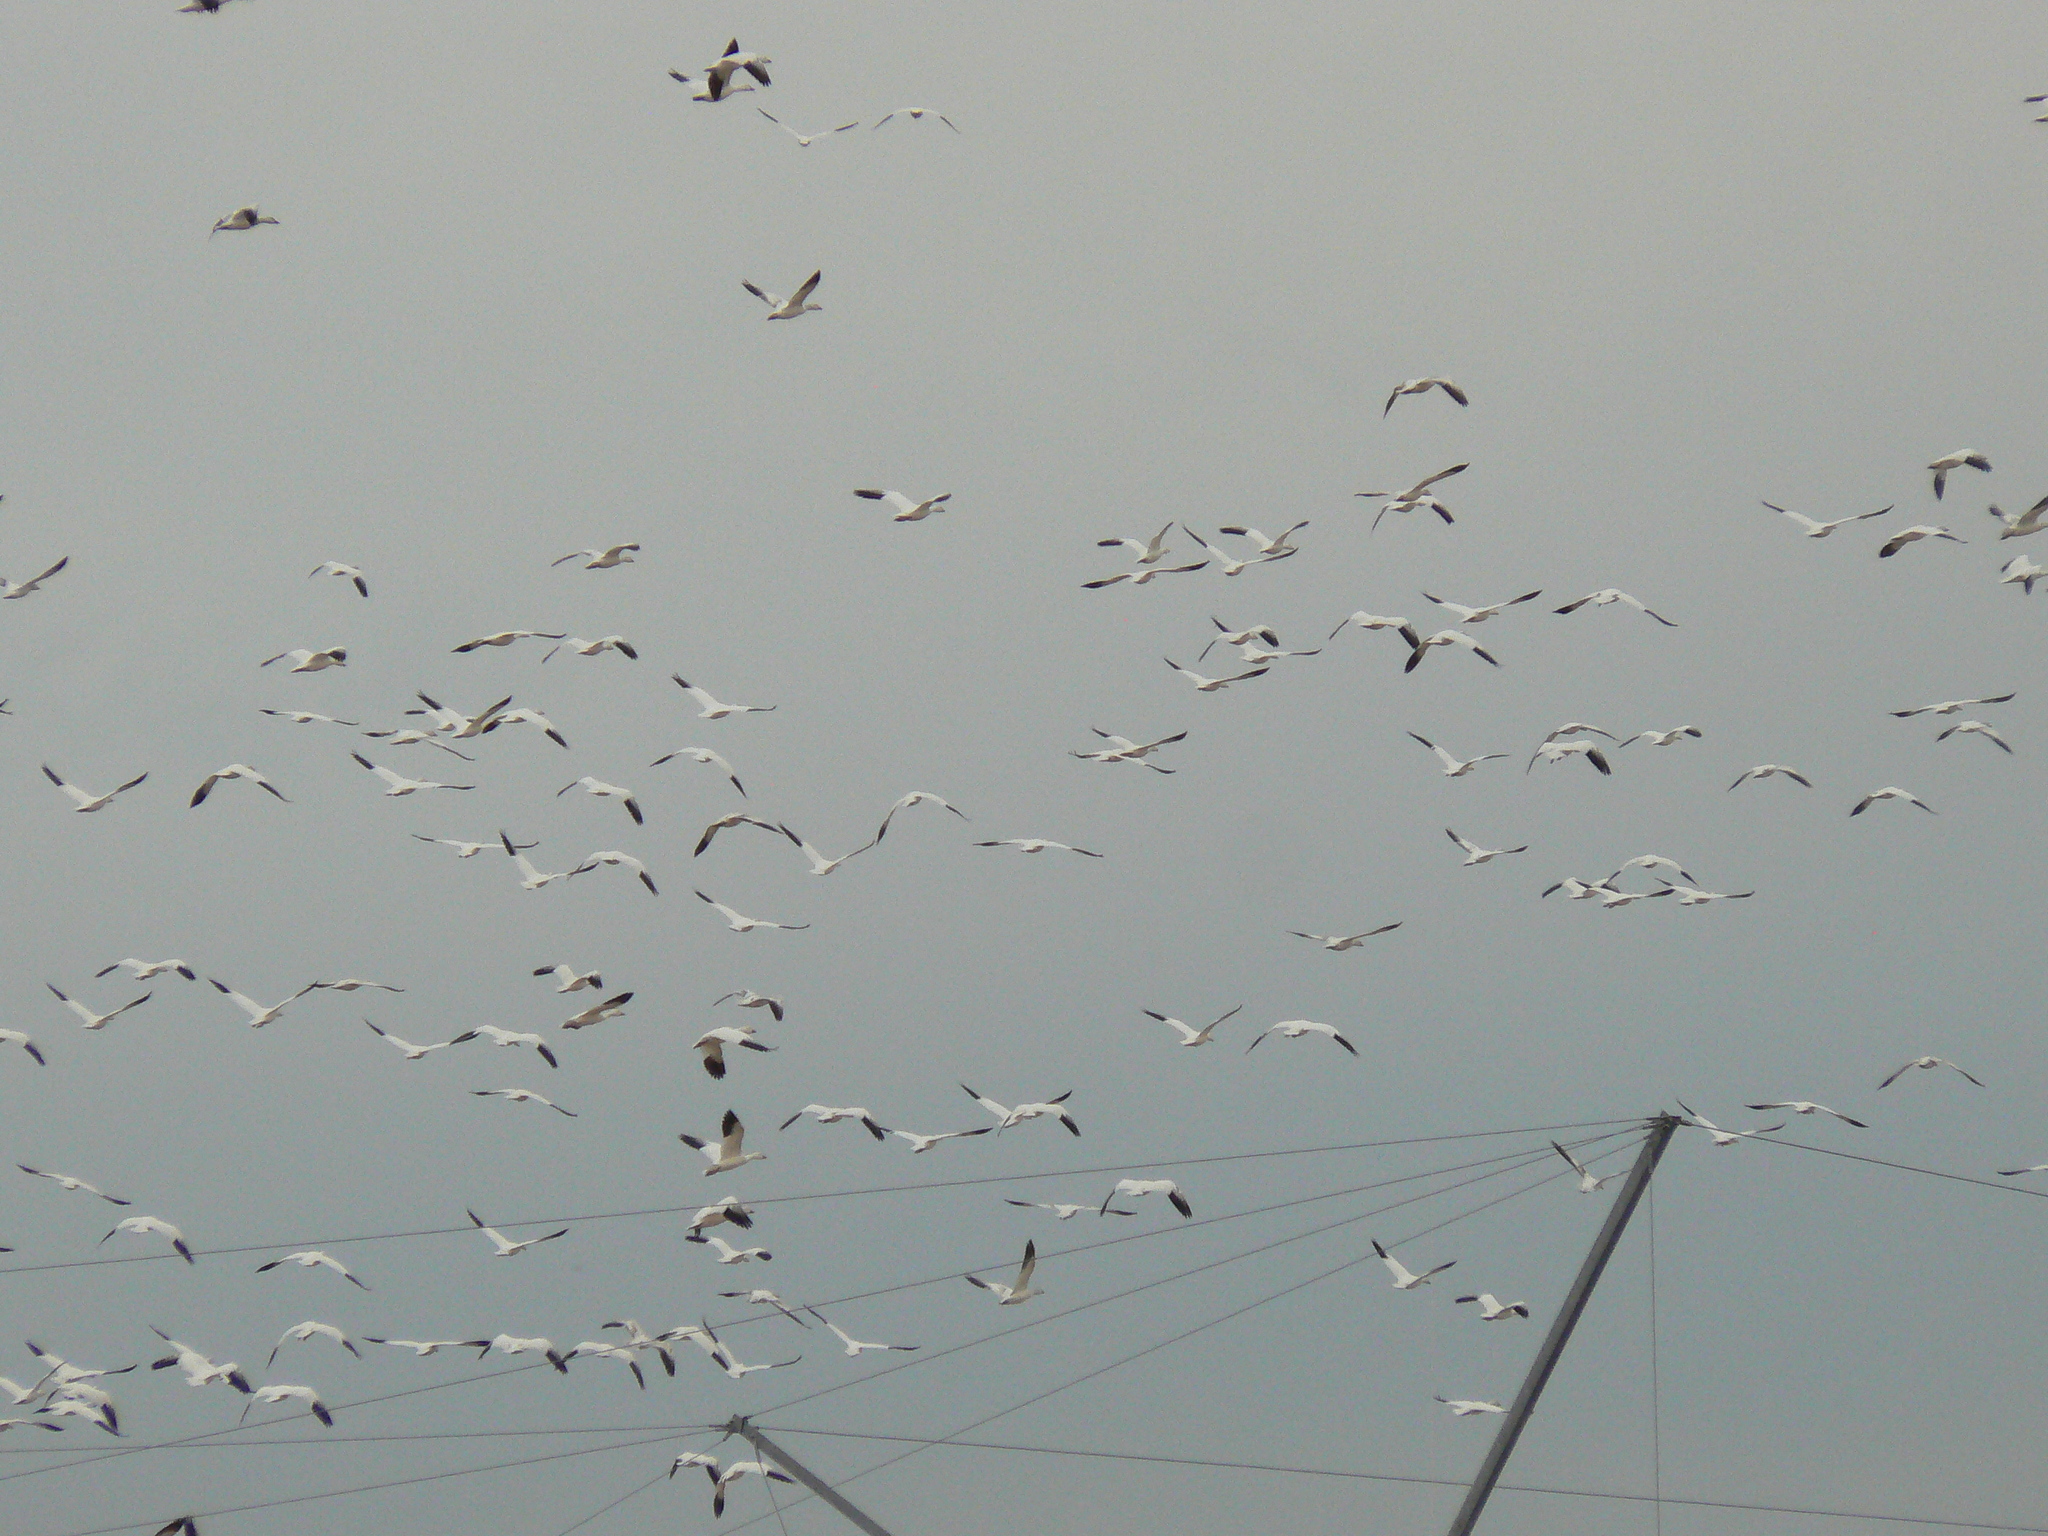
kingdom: Animalia
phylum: Chordata
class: Aves
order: Anseriformes
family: Anatidae
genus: Anser
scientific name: Anser caerulescens
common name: Snow goose
